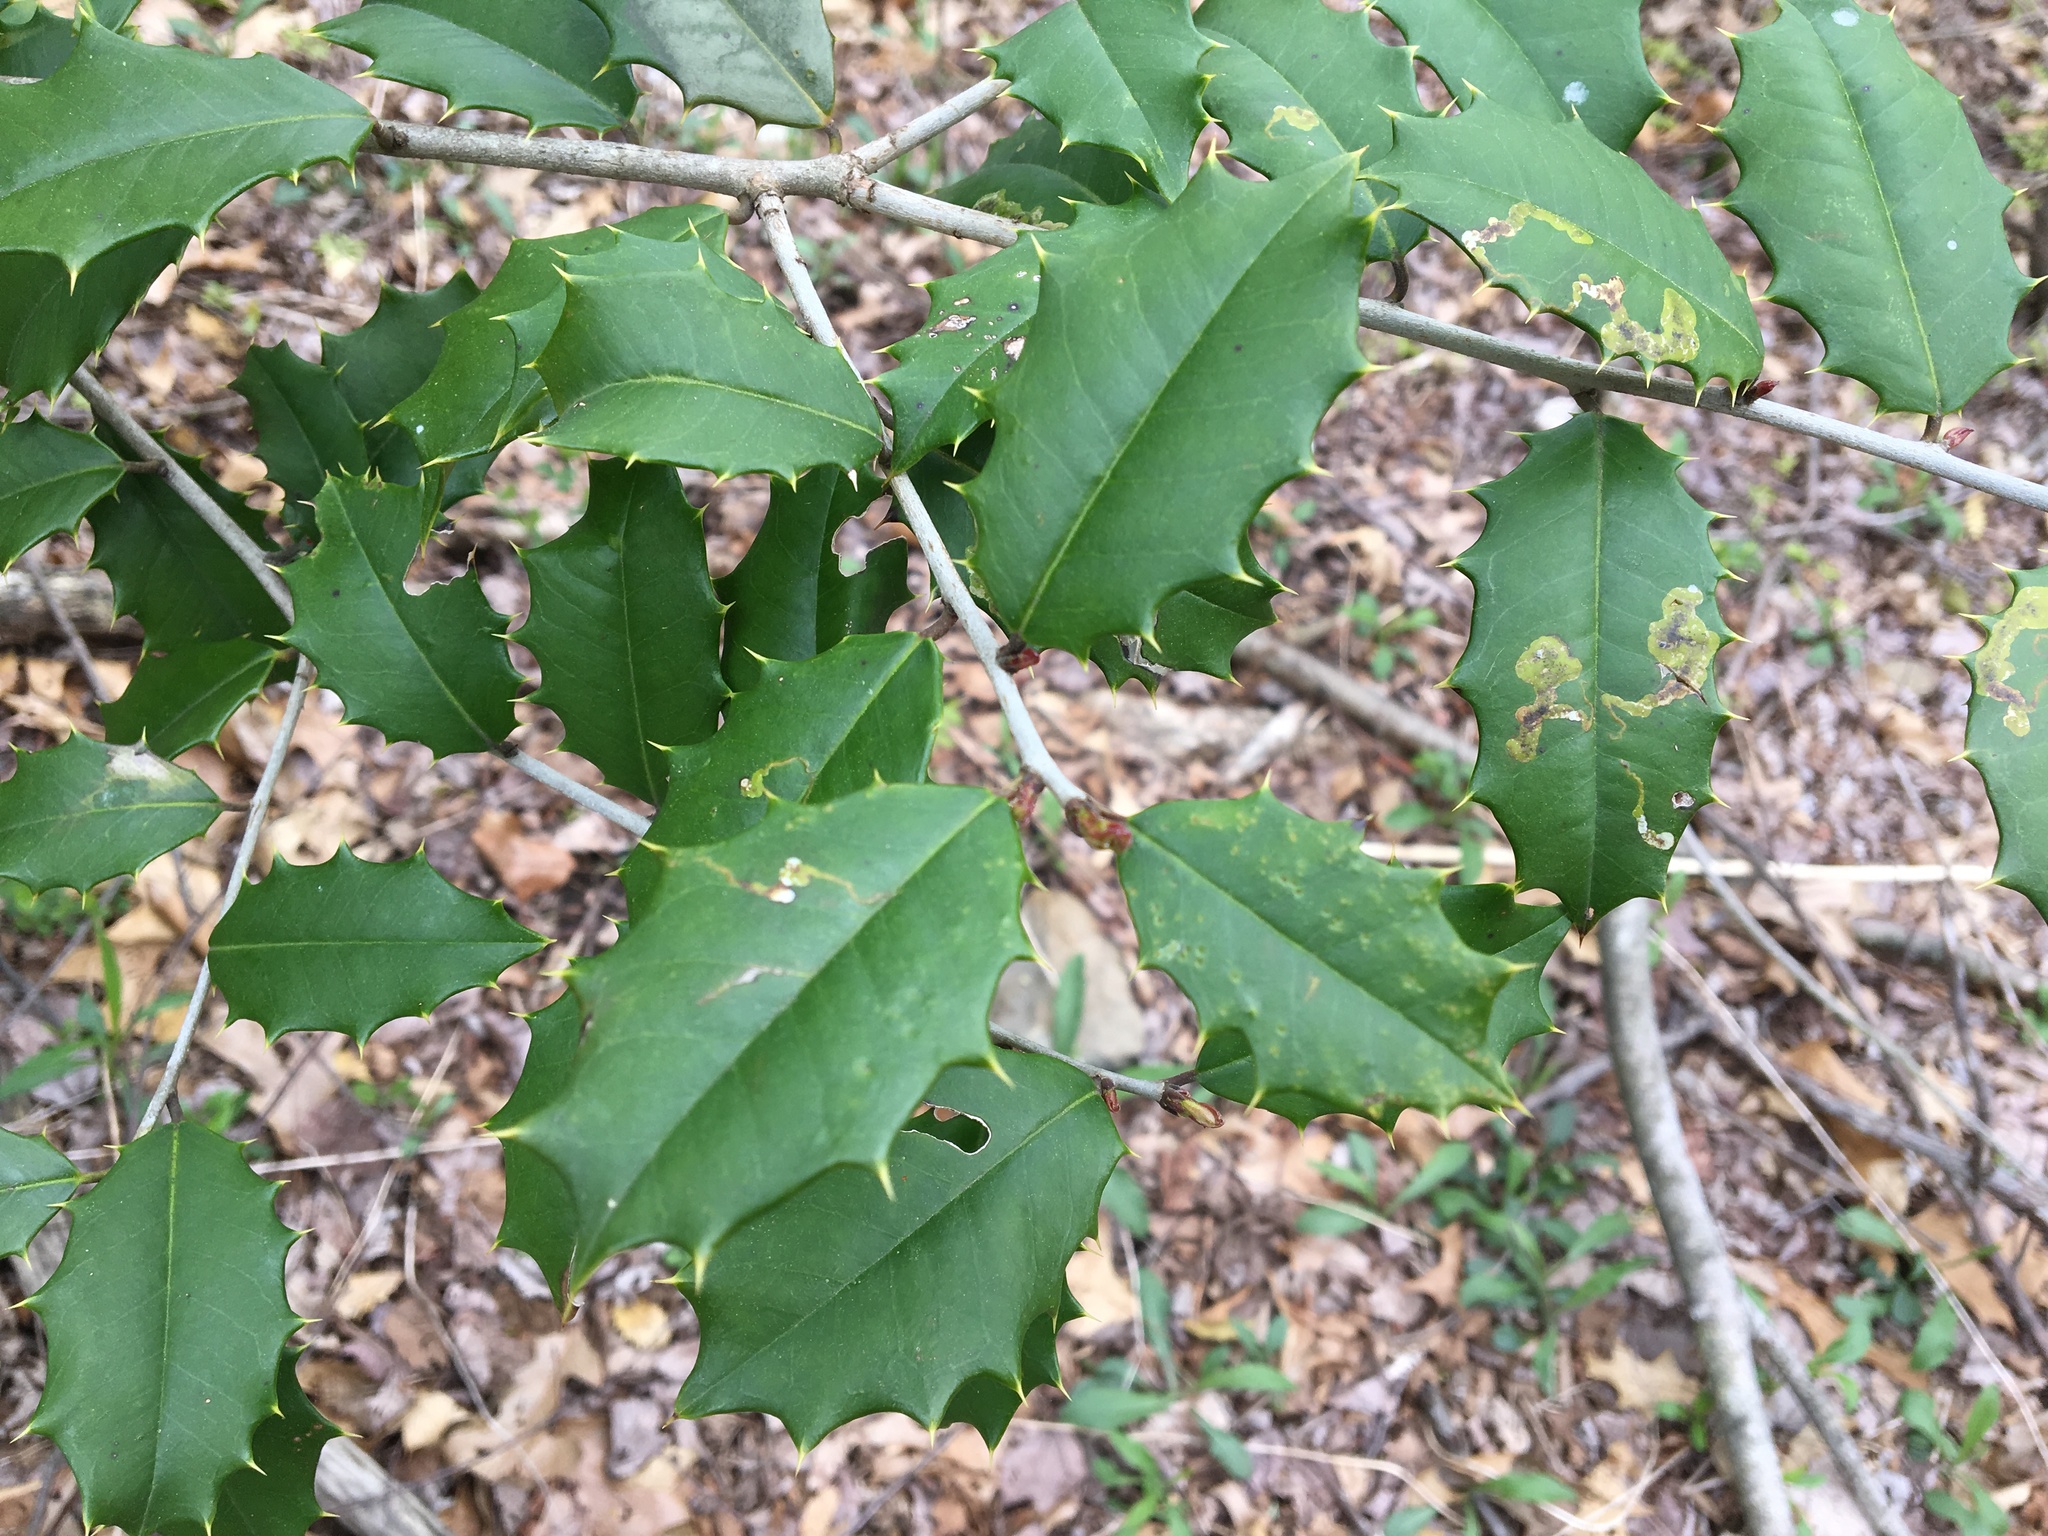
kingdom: Plantae
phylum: Tracheophyta
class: Magnoliopsida
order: Aquifoliales
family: Aquifoliaceae
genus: Ilex
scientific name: Ilex opaca
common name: American holly
